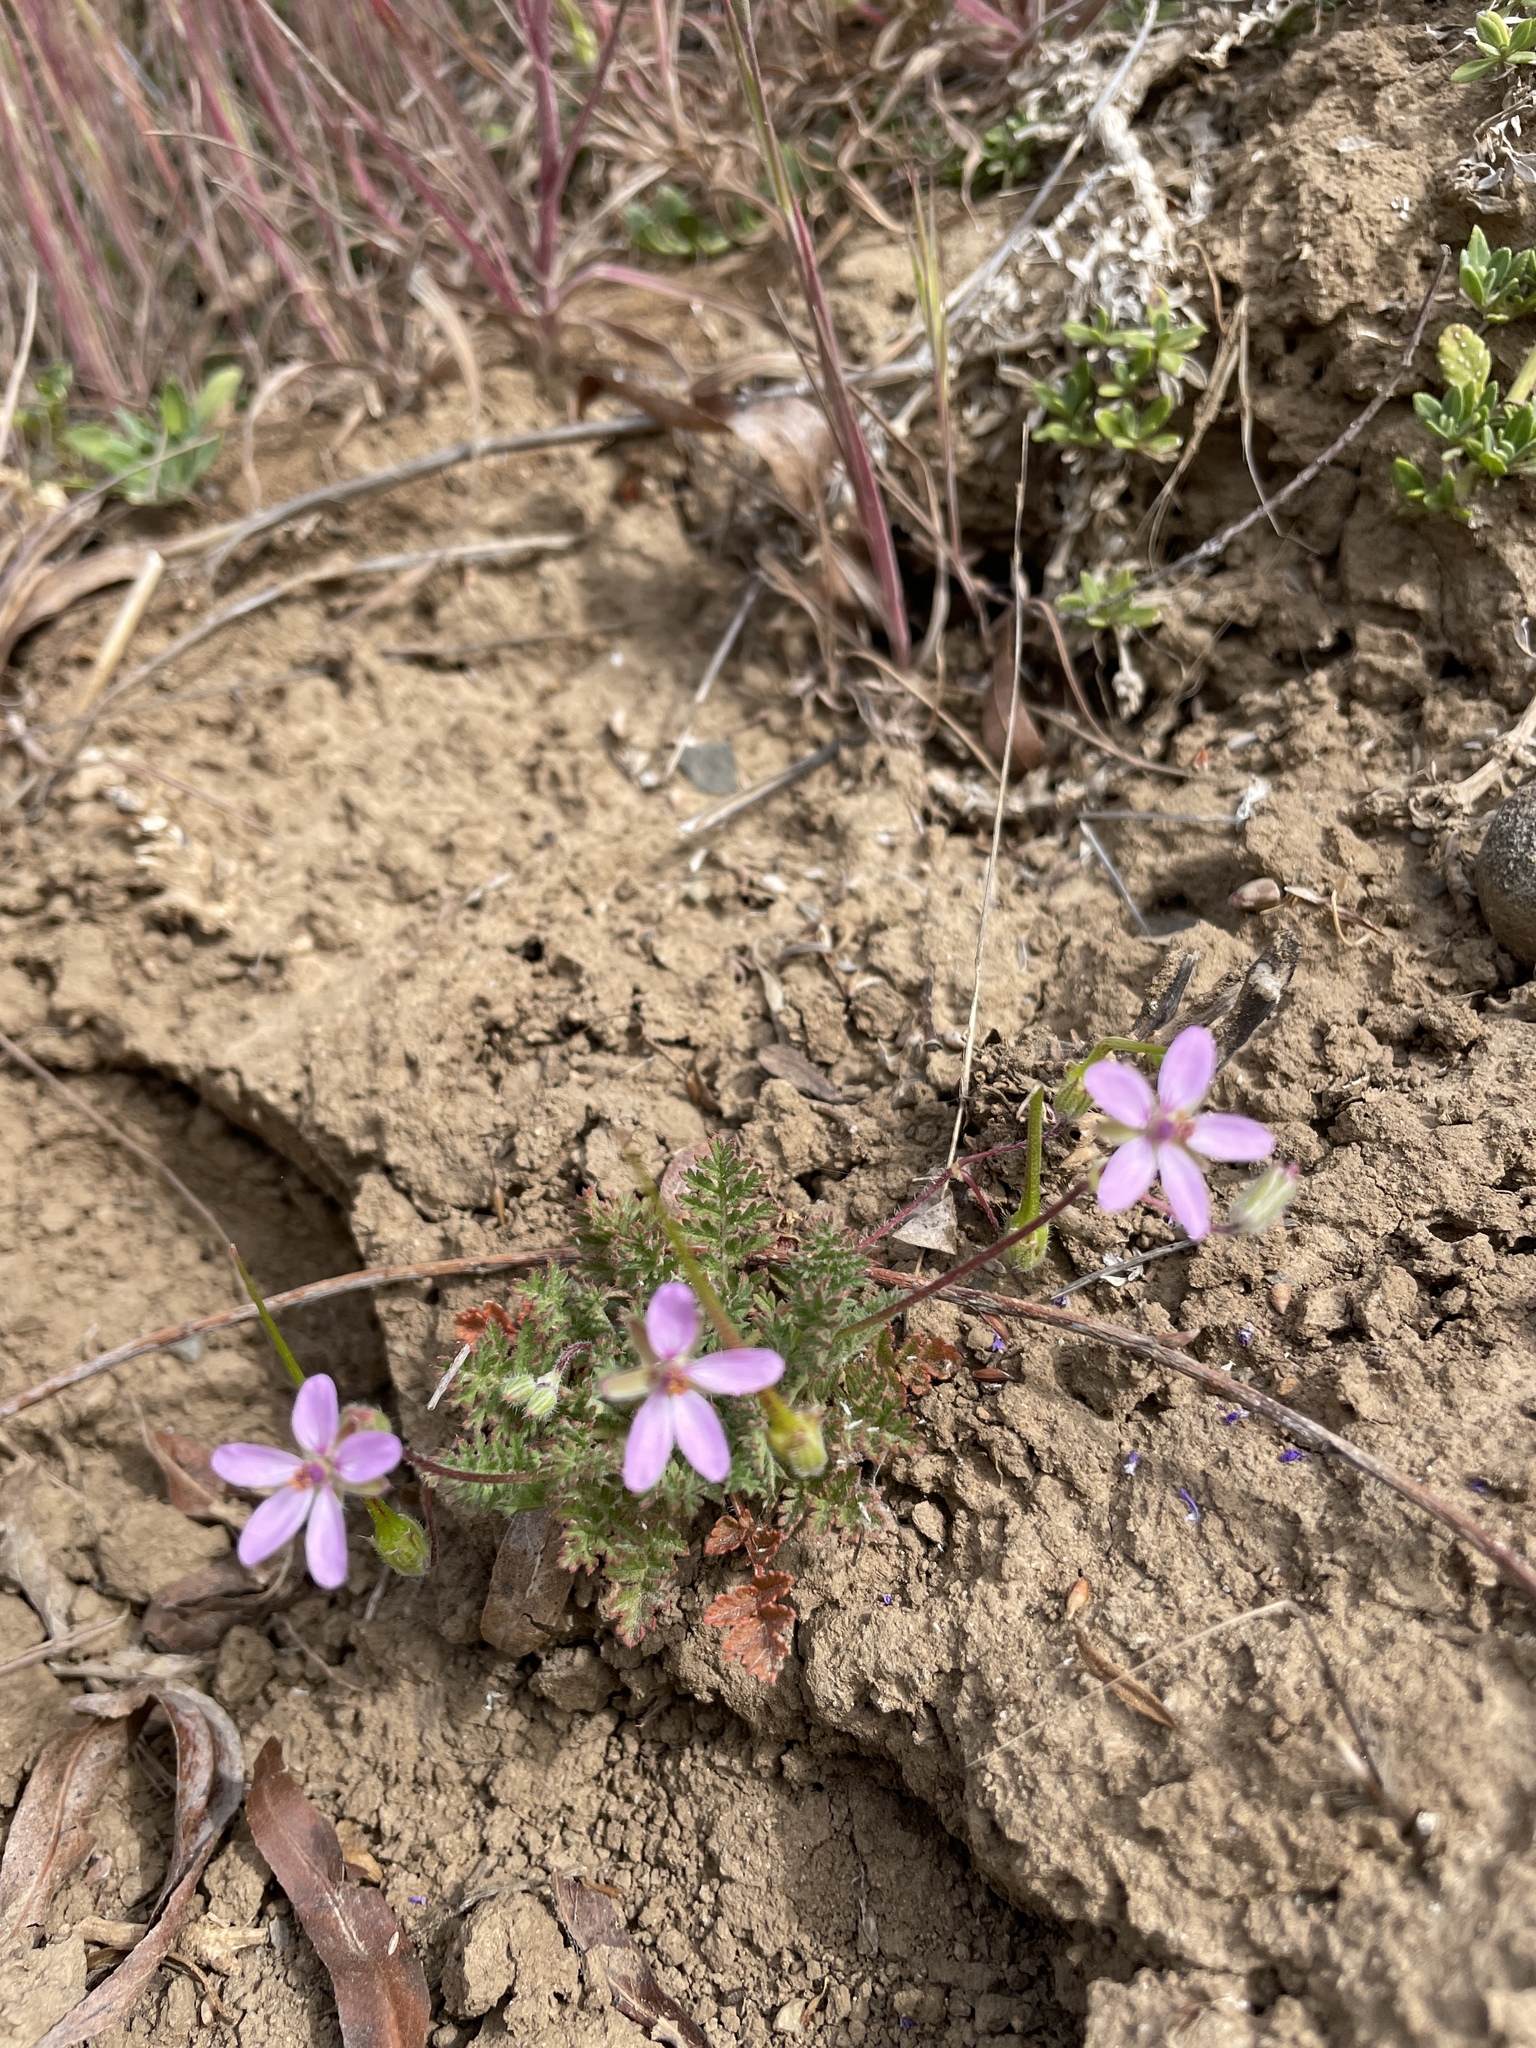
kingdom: Plantae
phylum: Tracheophyta
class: Magnoliopsida
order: Geraniales
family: Geraniaceae
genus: Erodium
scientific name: Erodium cicutarium
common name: Common stork's-bill
